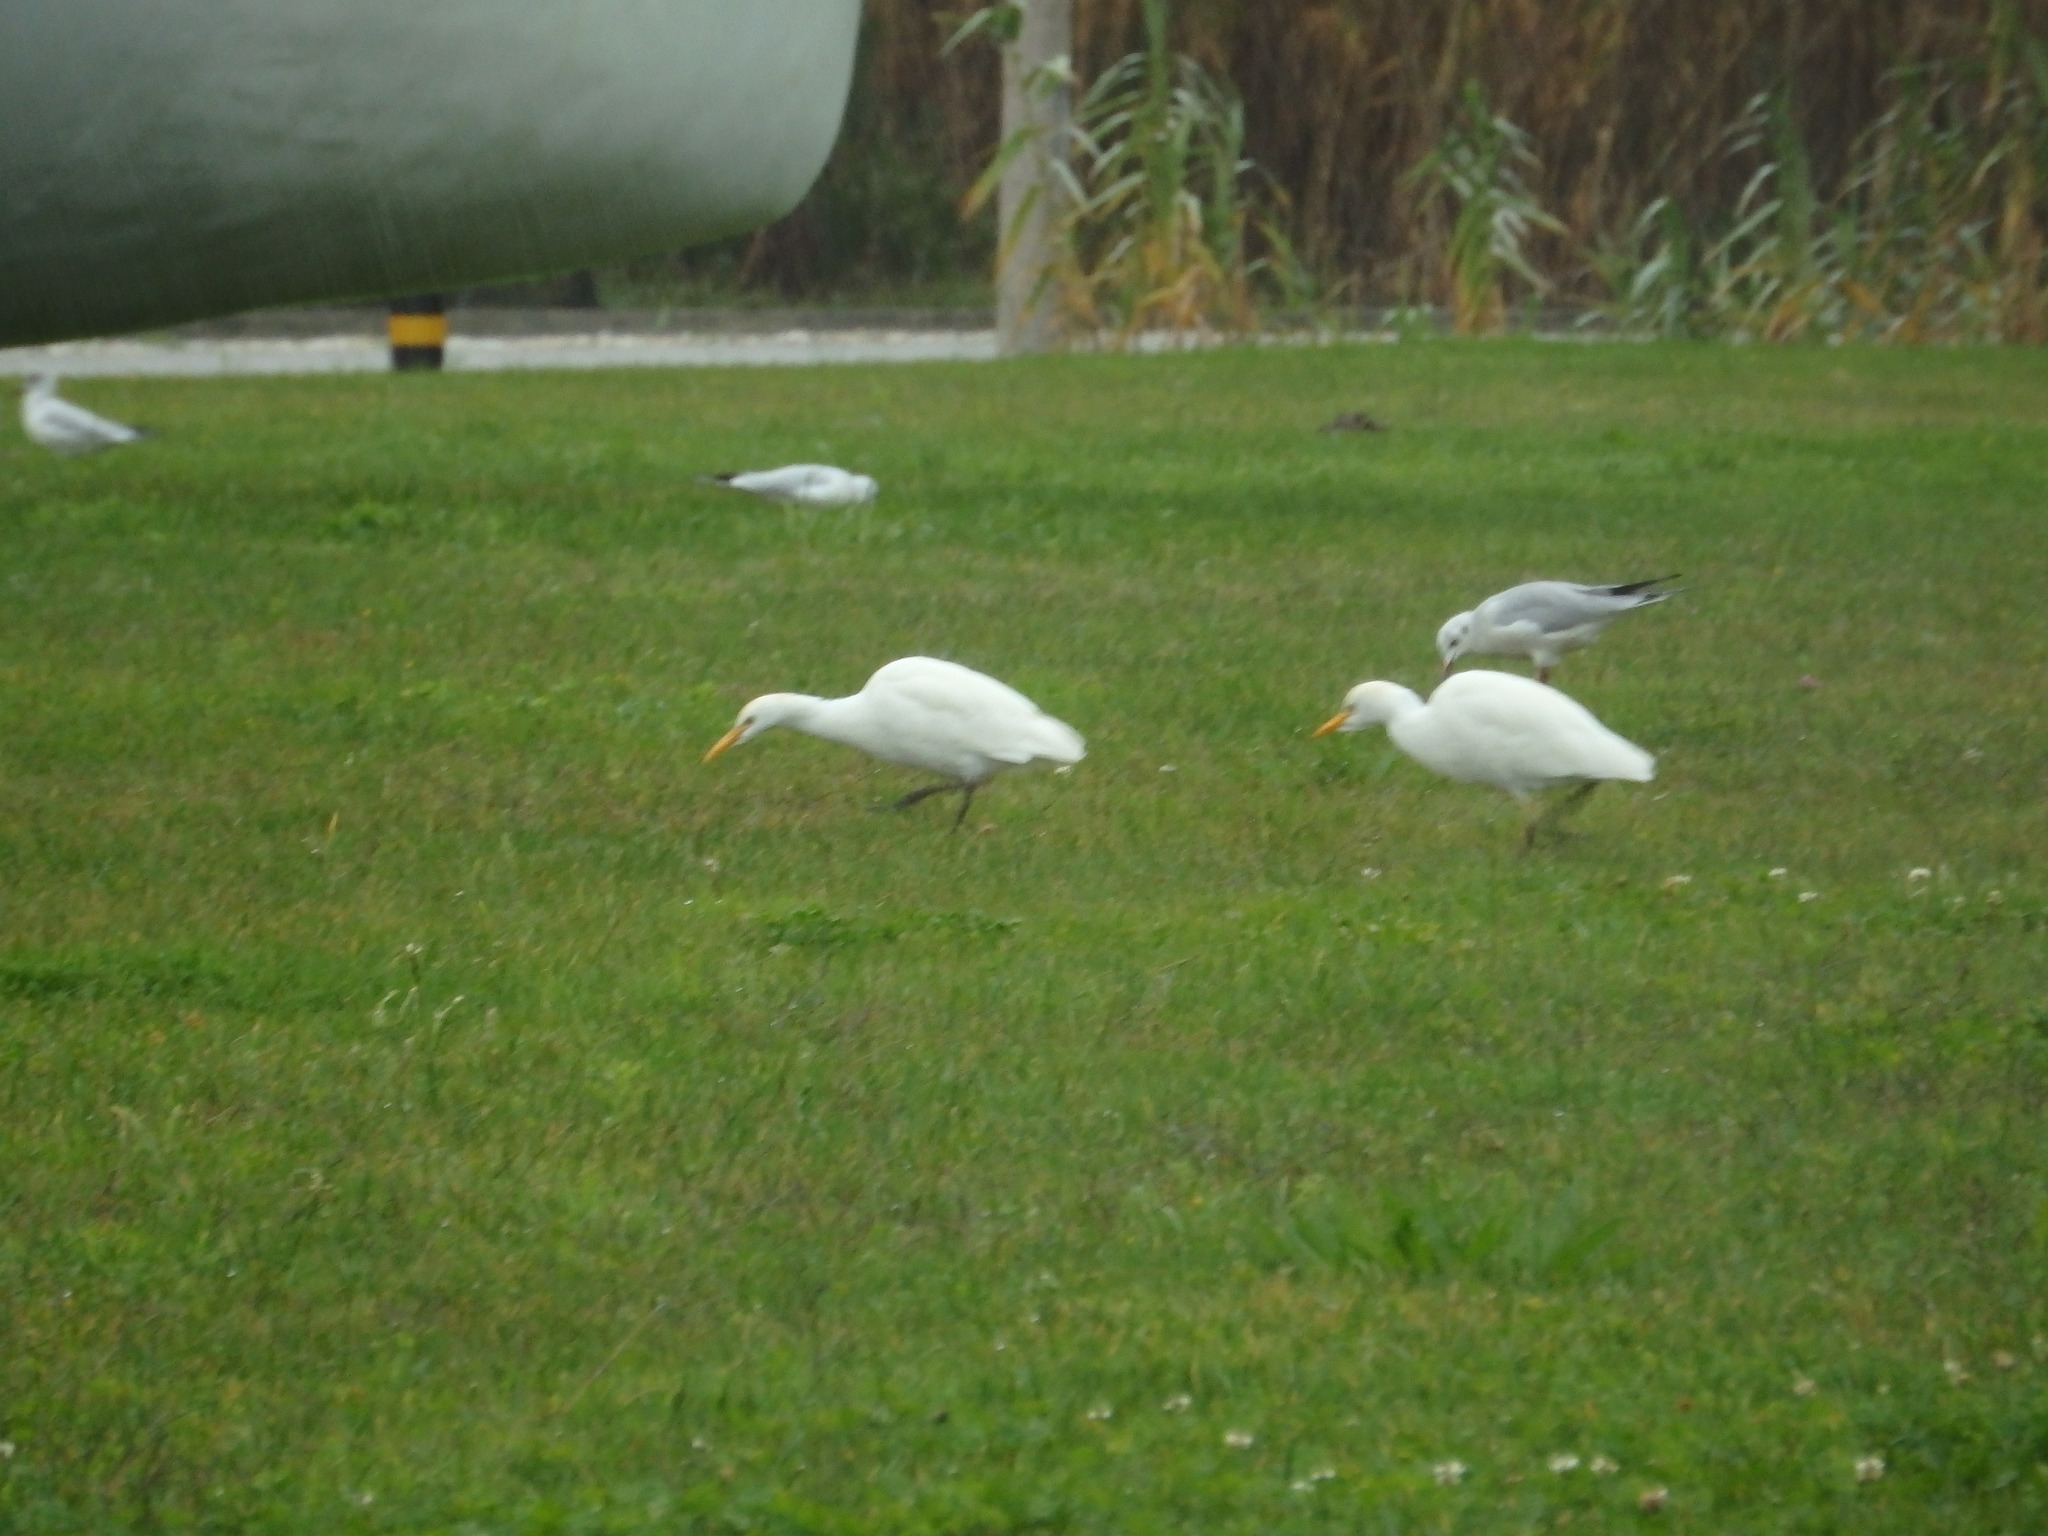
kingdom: Animalia
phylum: Chordata
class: Aves
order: Pelecaniformes
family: Ardeidae
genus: Bubulcus
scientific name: Bubulcus ibis
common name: Cattle egret
